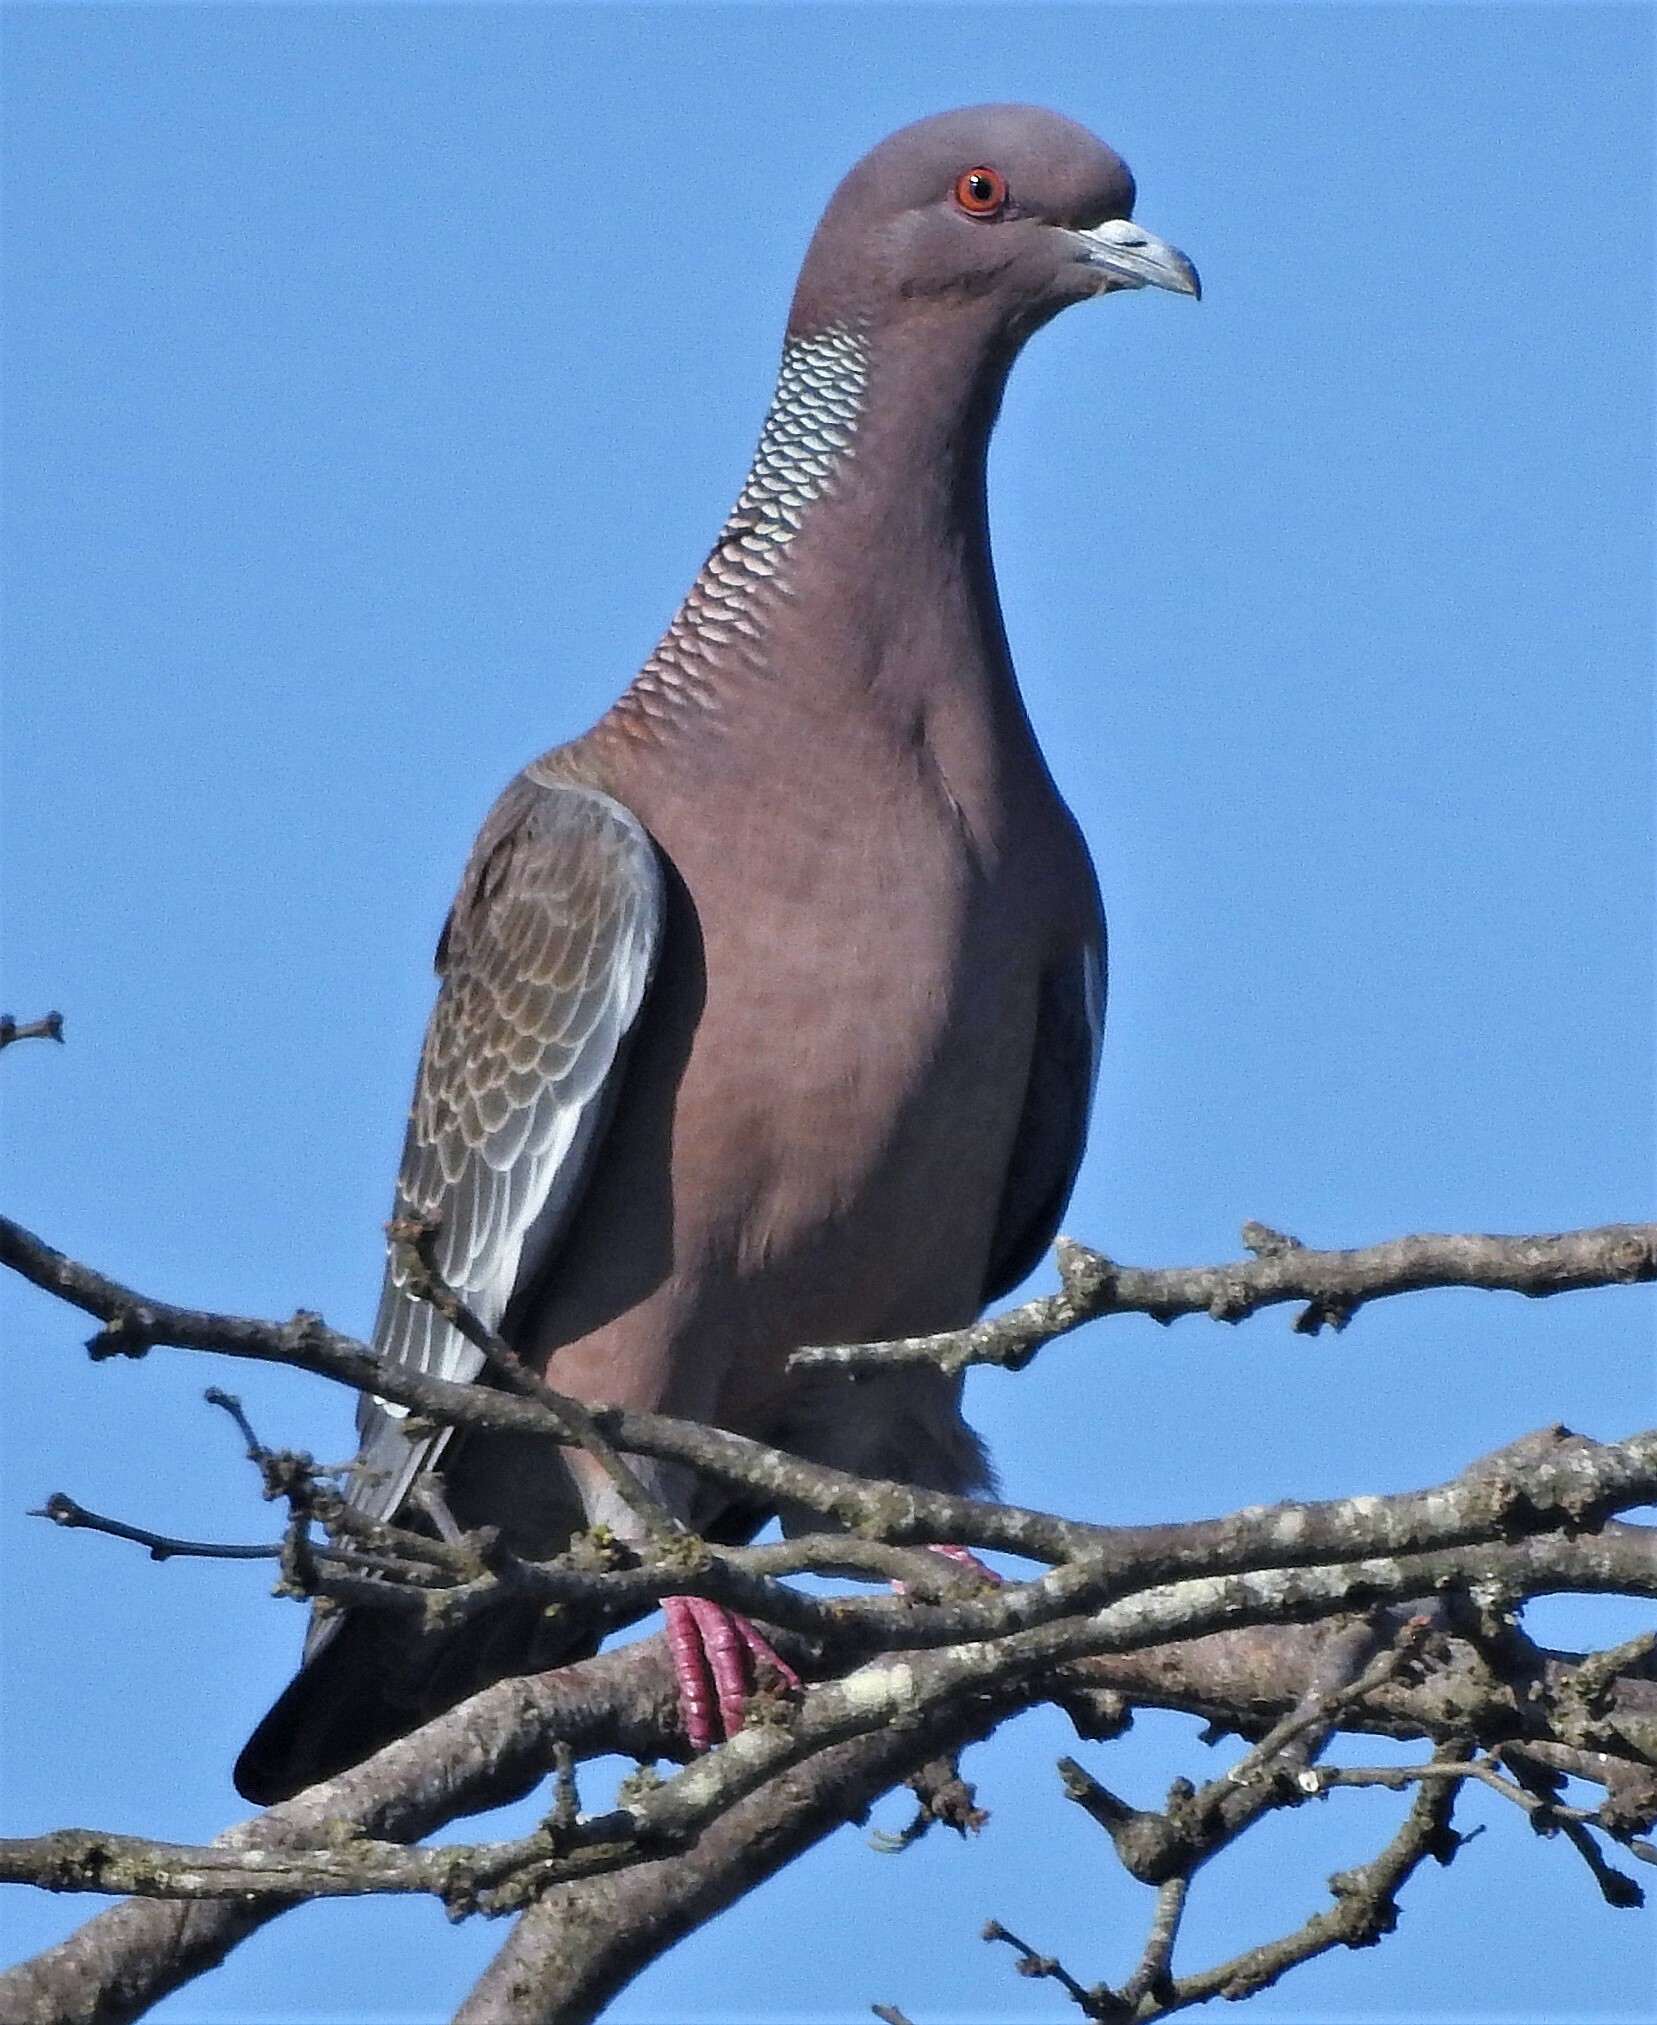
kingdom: Animalia
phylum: Chordata
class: Aves
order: Columbiformes
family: Columbidae
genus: Patagioenas
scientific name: Patagioenas picazuro
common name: Picazuro pigeon
